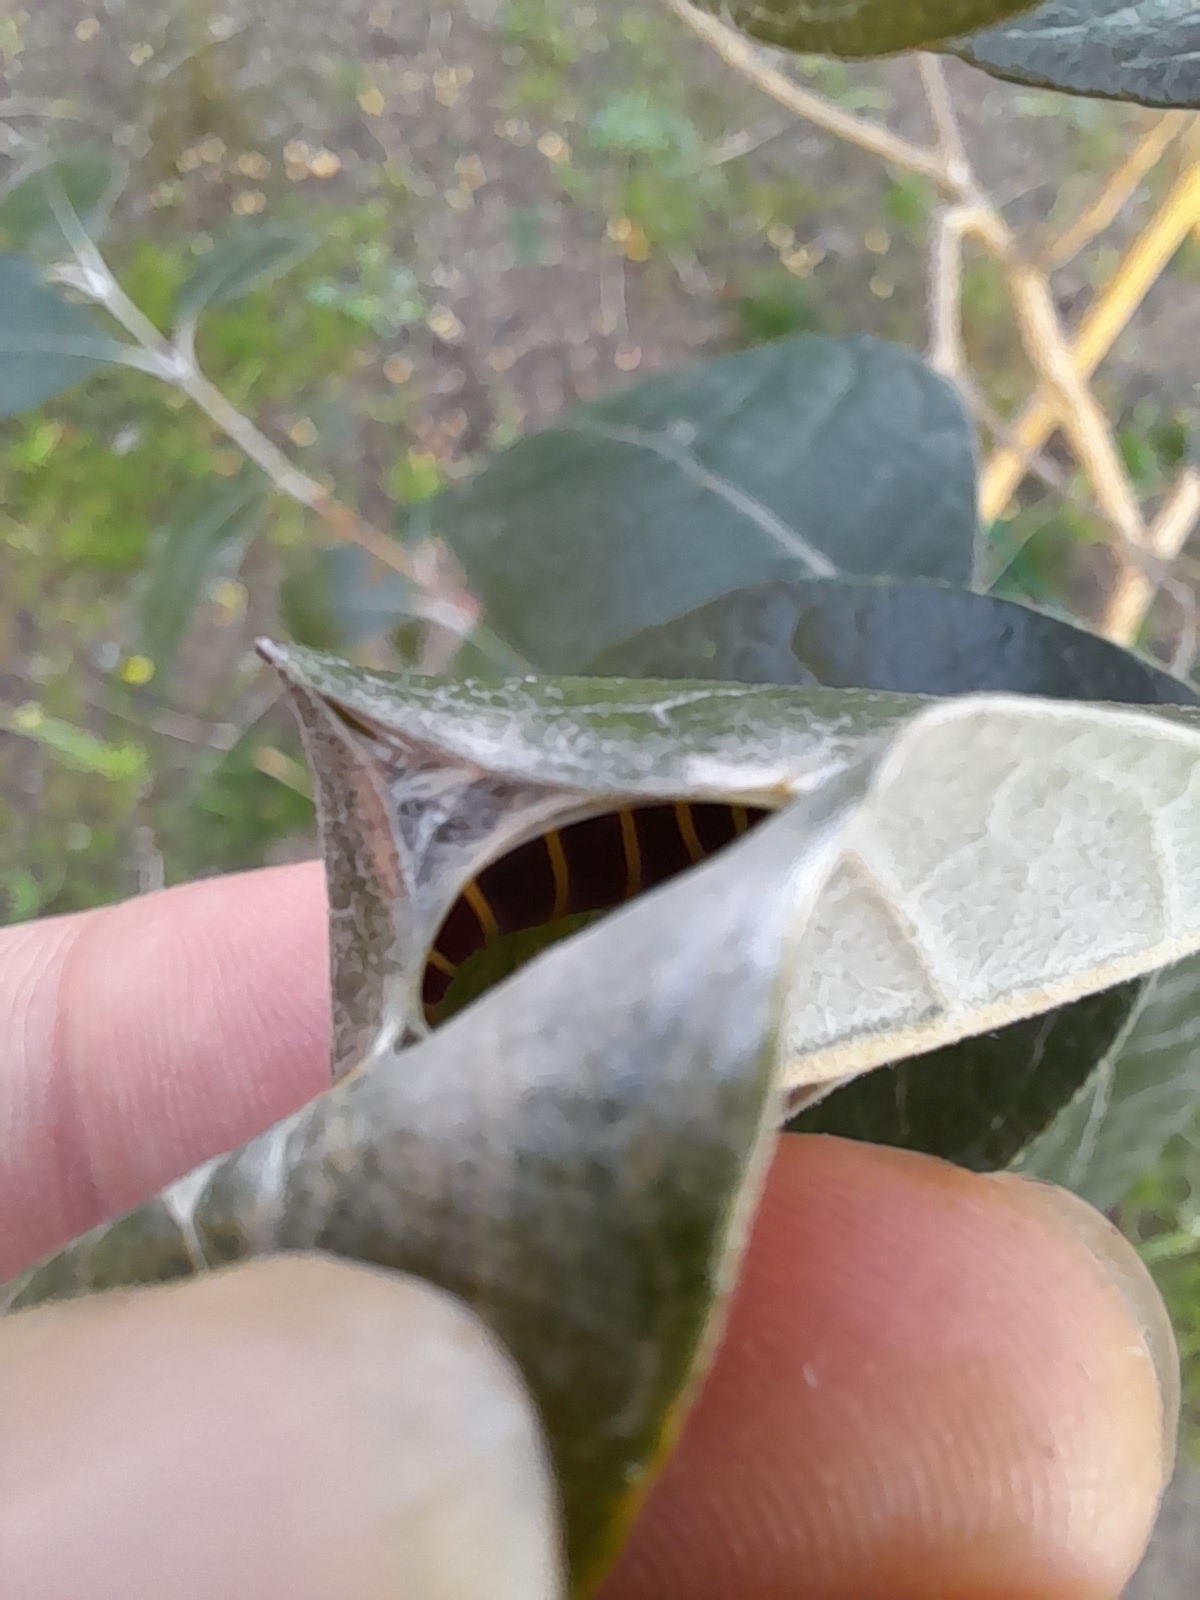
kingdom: Animalia
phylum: Arthropoda
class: Insecta
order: Lepidoptera
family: Hesperiidae
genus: Phocides
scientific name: Phocides polybius
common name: Guava skipper
